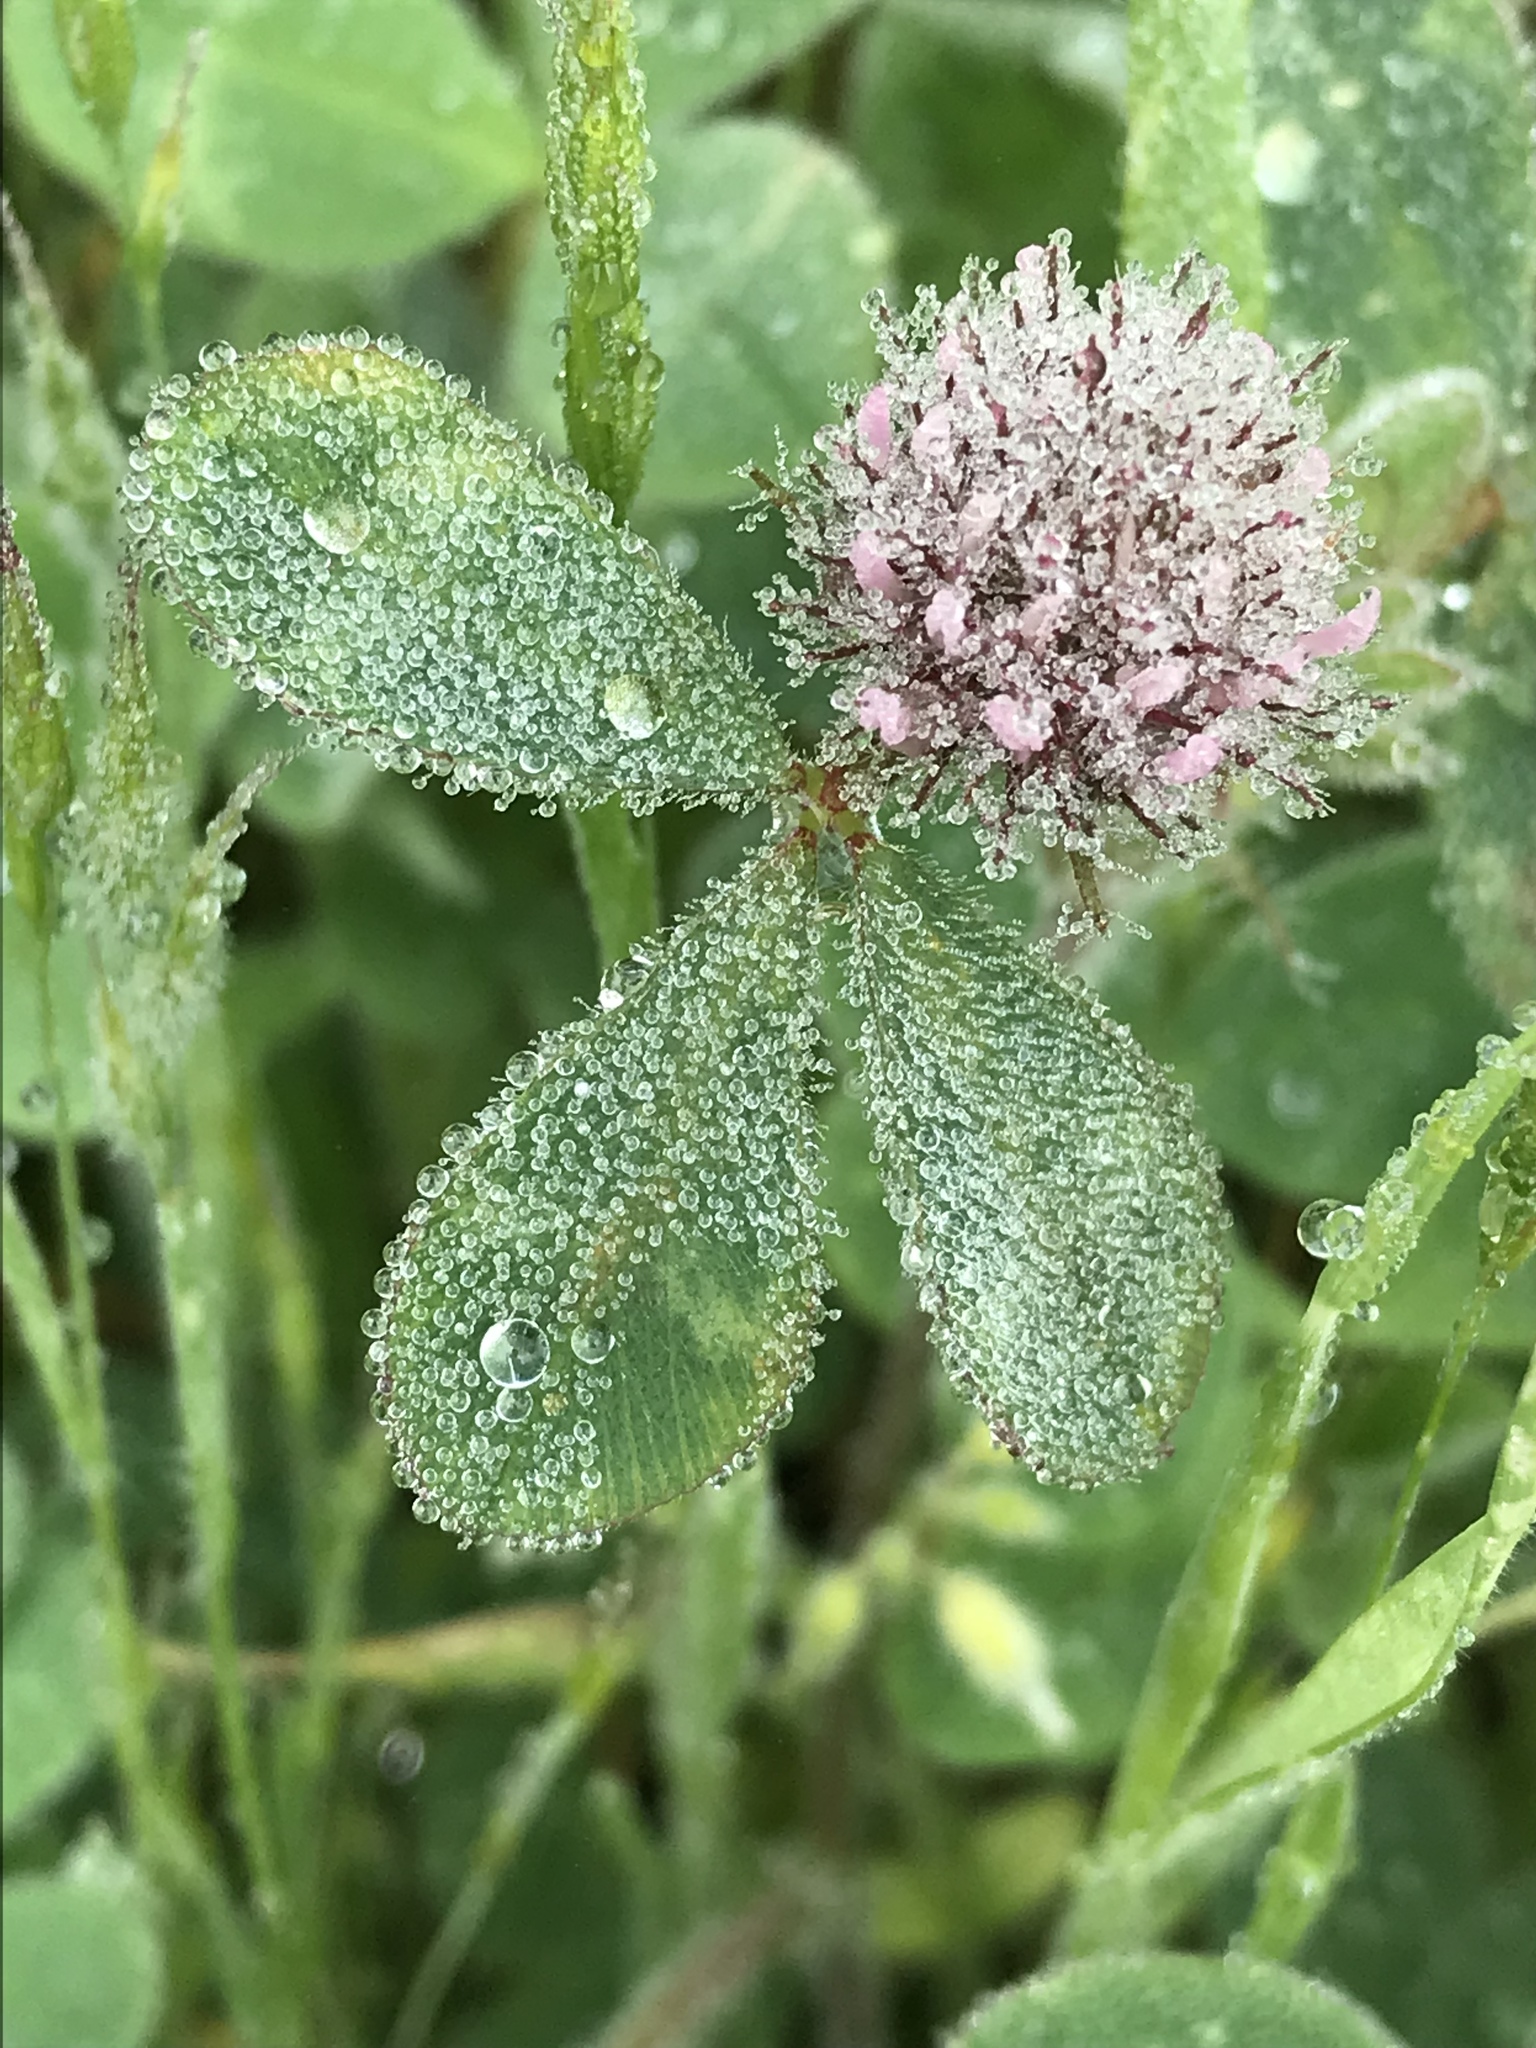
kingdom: Plantae
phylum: Tracheophyta
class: Magnoliopsida
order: Fabales
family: Fabaceae
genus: Trifolium
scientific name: Trifolium hirtum
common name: Rose clover
